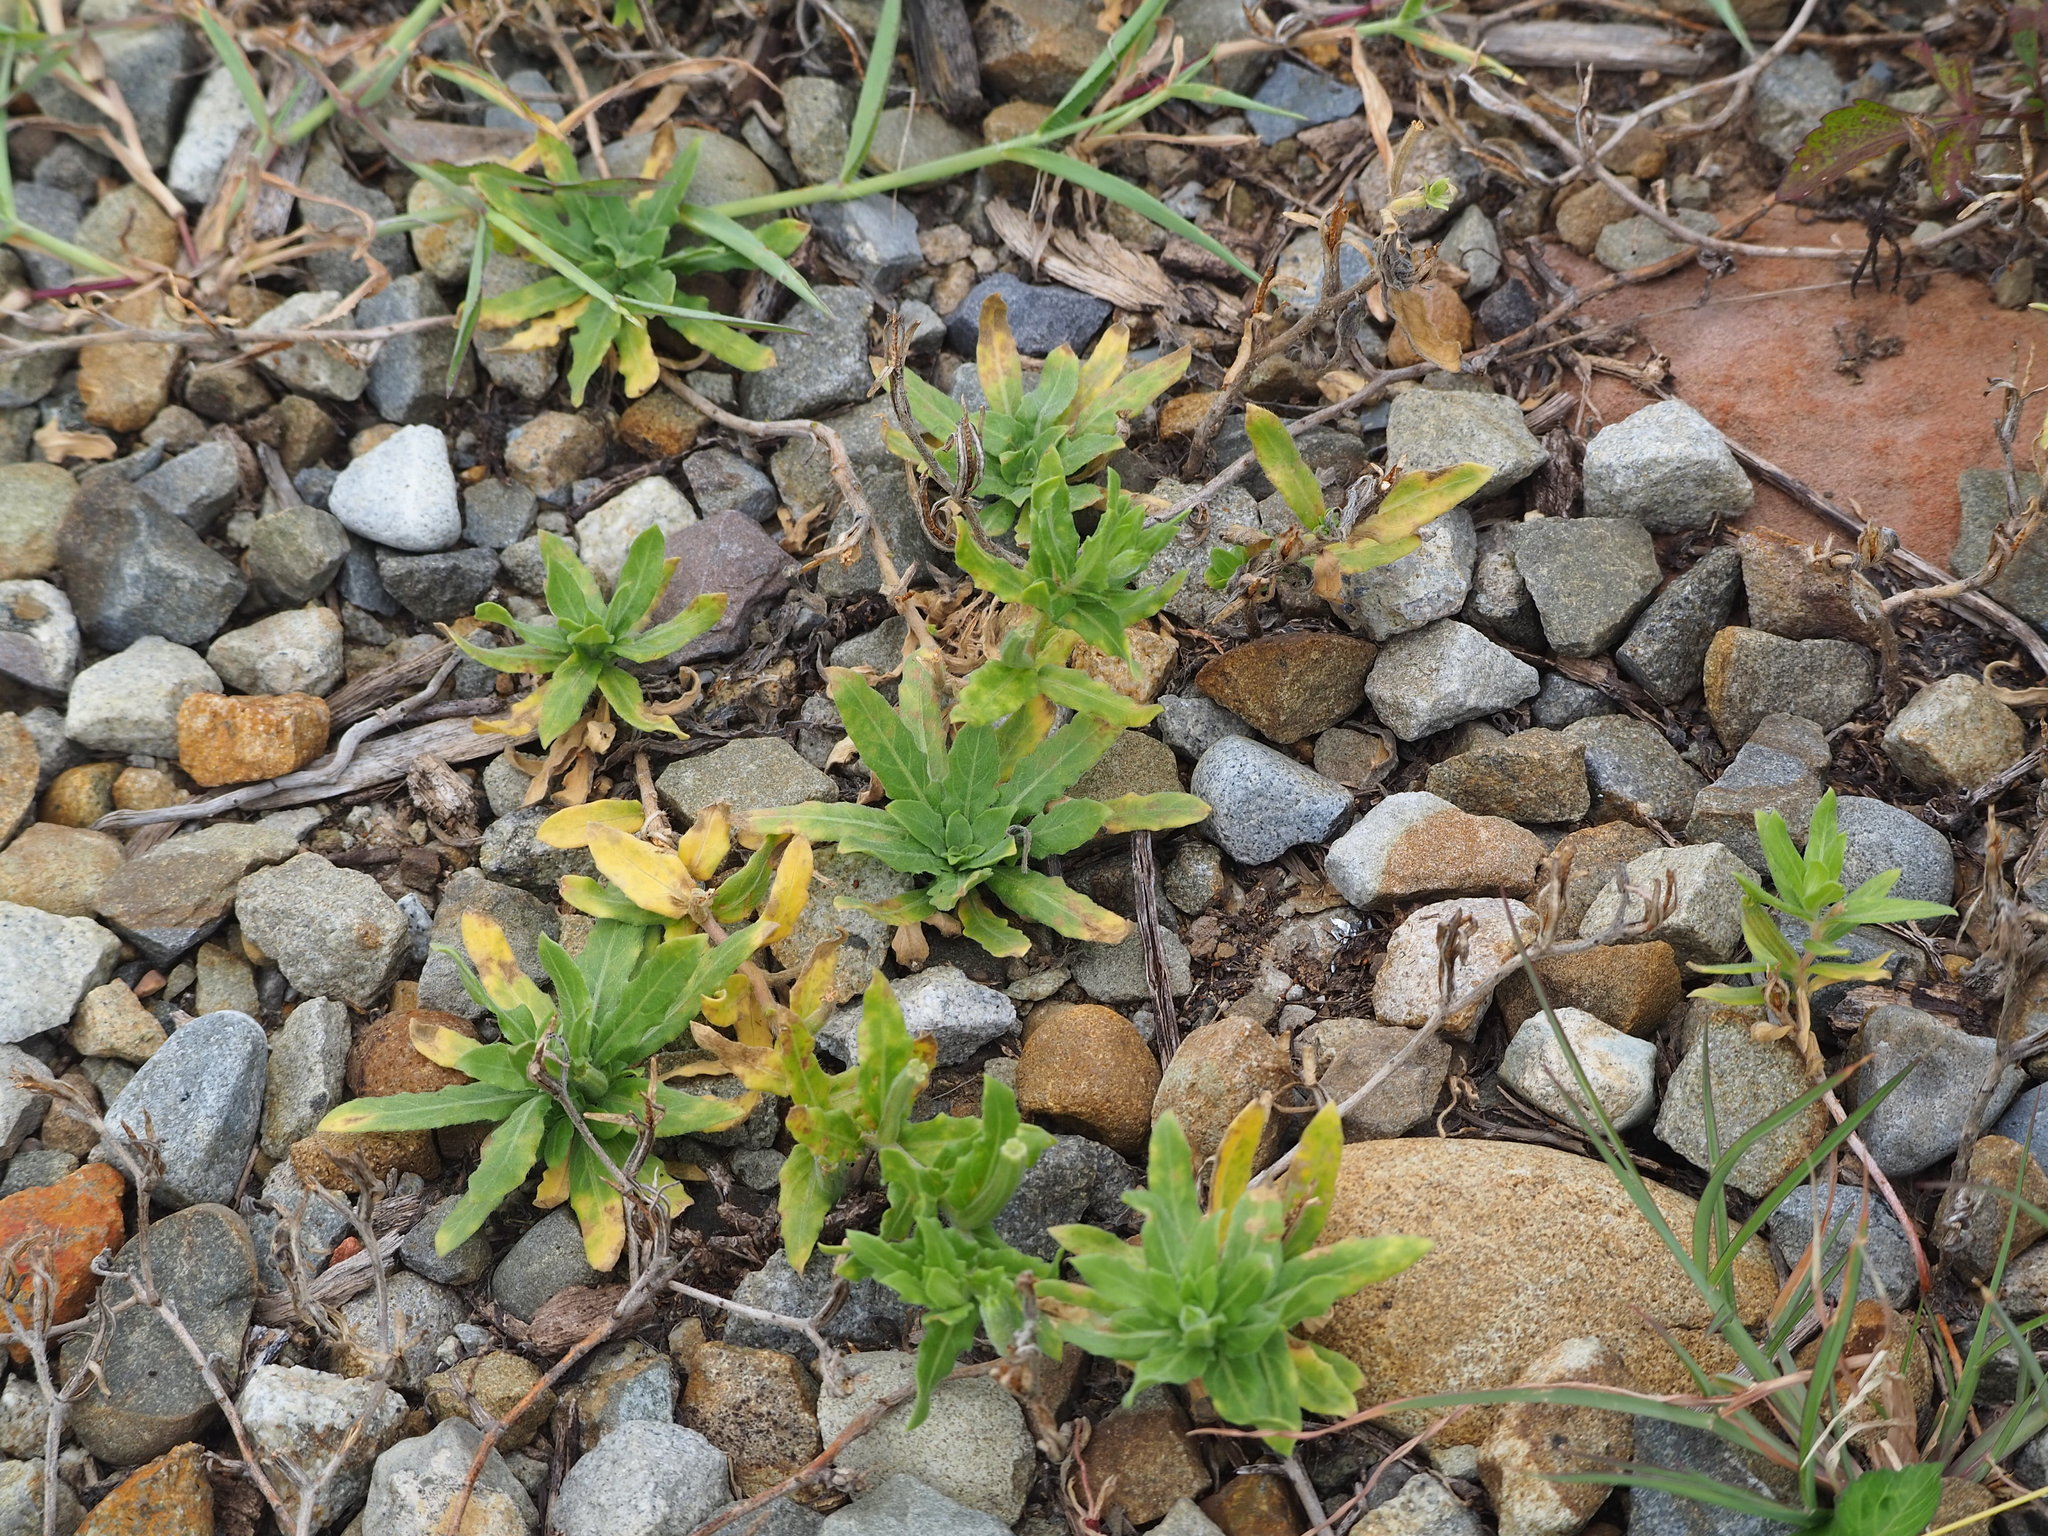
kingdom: Plantae
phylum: Tracheophyta
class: Magnoliopsida
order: Myrtales
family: Onagraceae
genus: Oenothera
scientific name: Oenothera laciniata
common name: Cut-leaved evening-primrose
